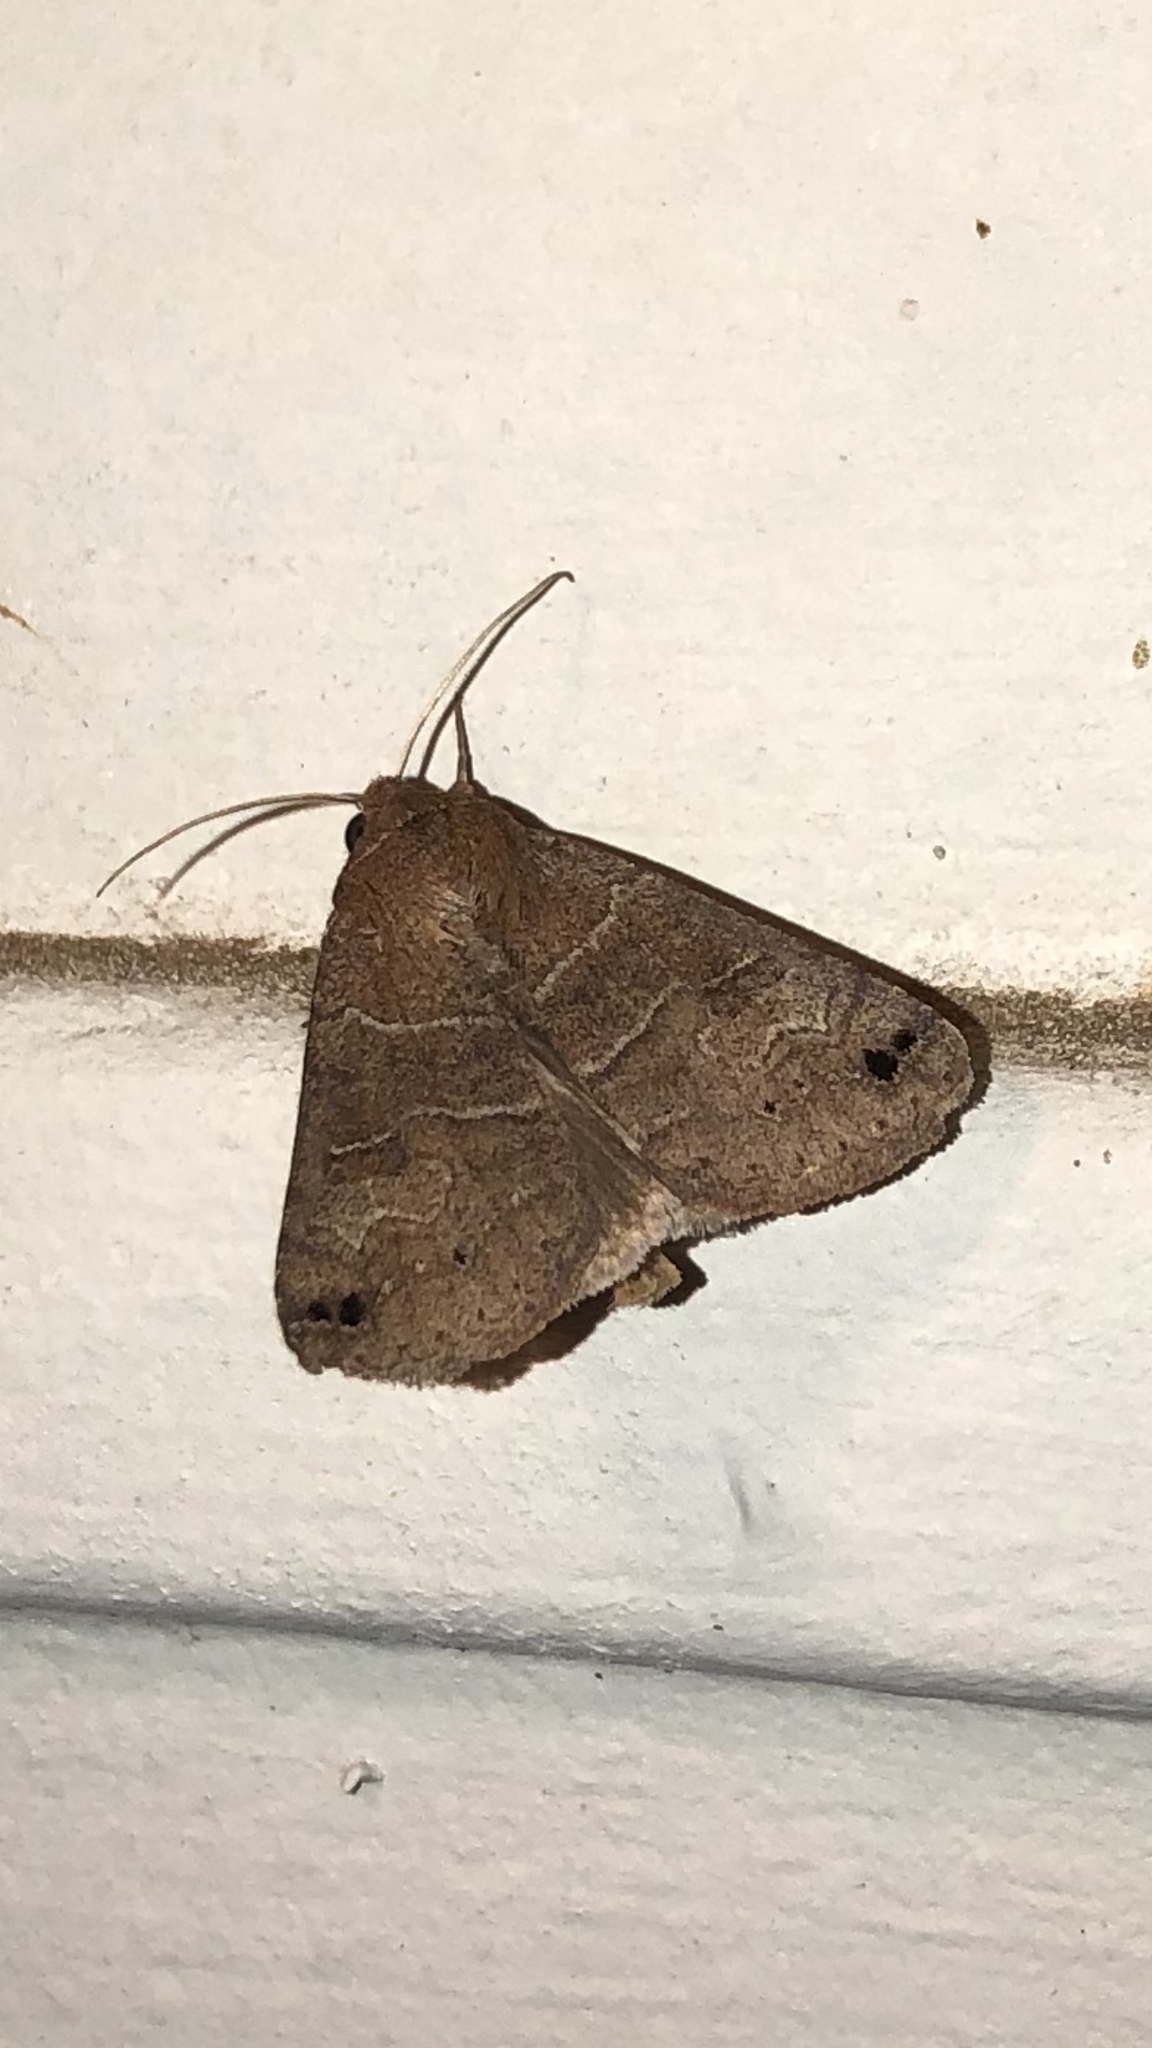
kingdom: Animalia
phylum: Arthropoda
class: Insecta
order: Lepidoptera
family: Erebidae
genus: Cissusa
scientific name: Cissusa spadix
